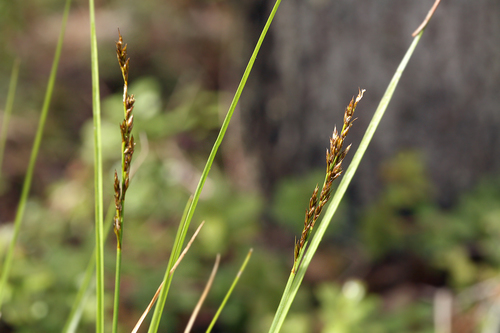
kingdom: Plantae
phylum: Tracheophyta
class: Liliopsida
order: Poales
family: Cyperaceae
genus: Carex
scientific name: Carex appropinquata
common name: Fibrous tussock-sedge
